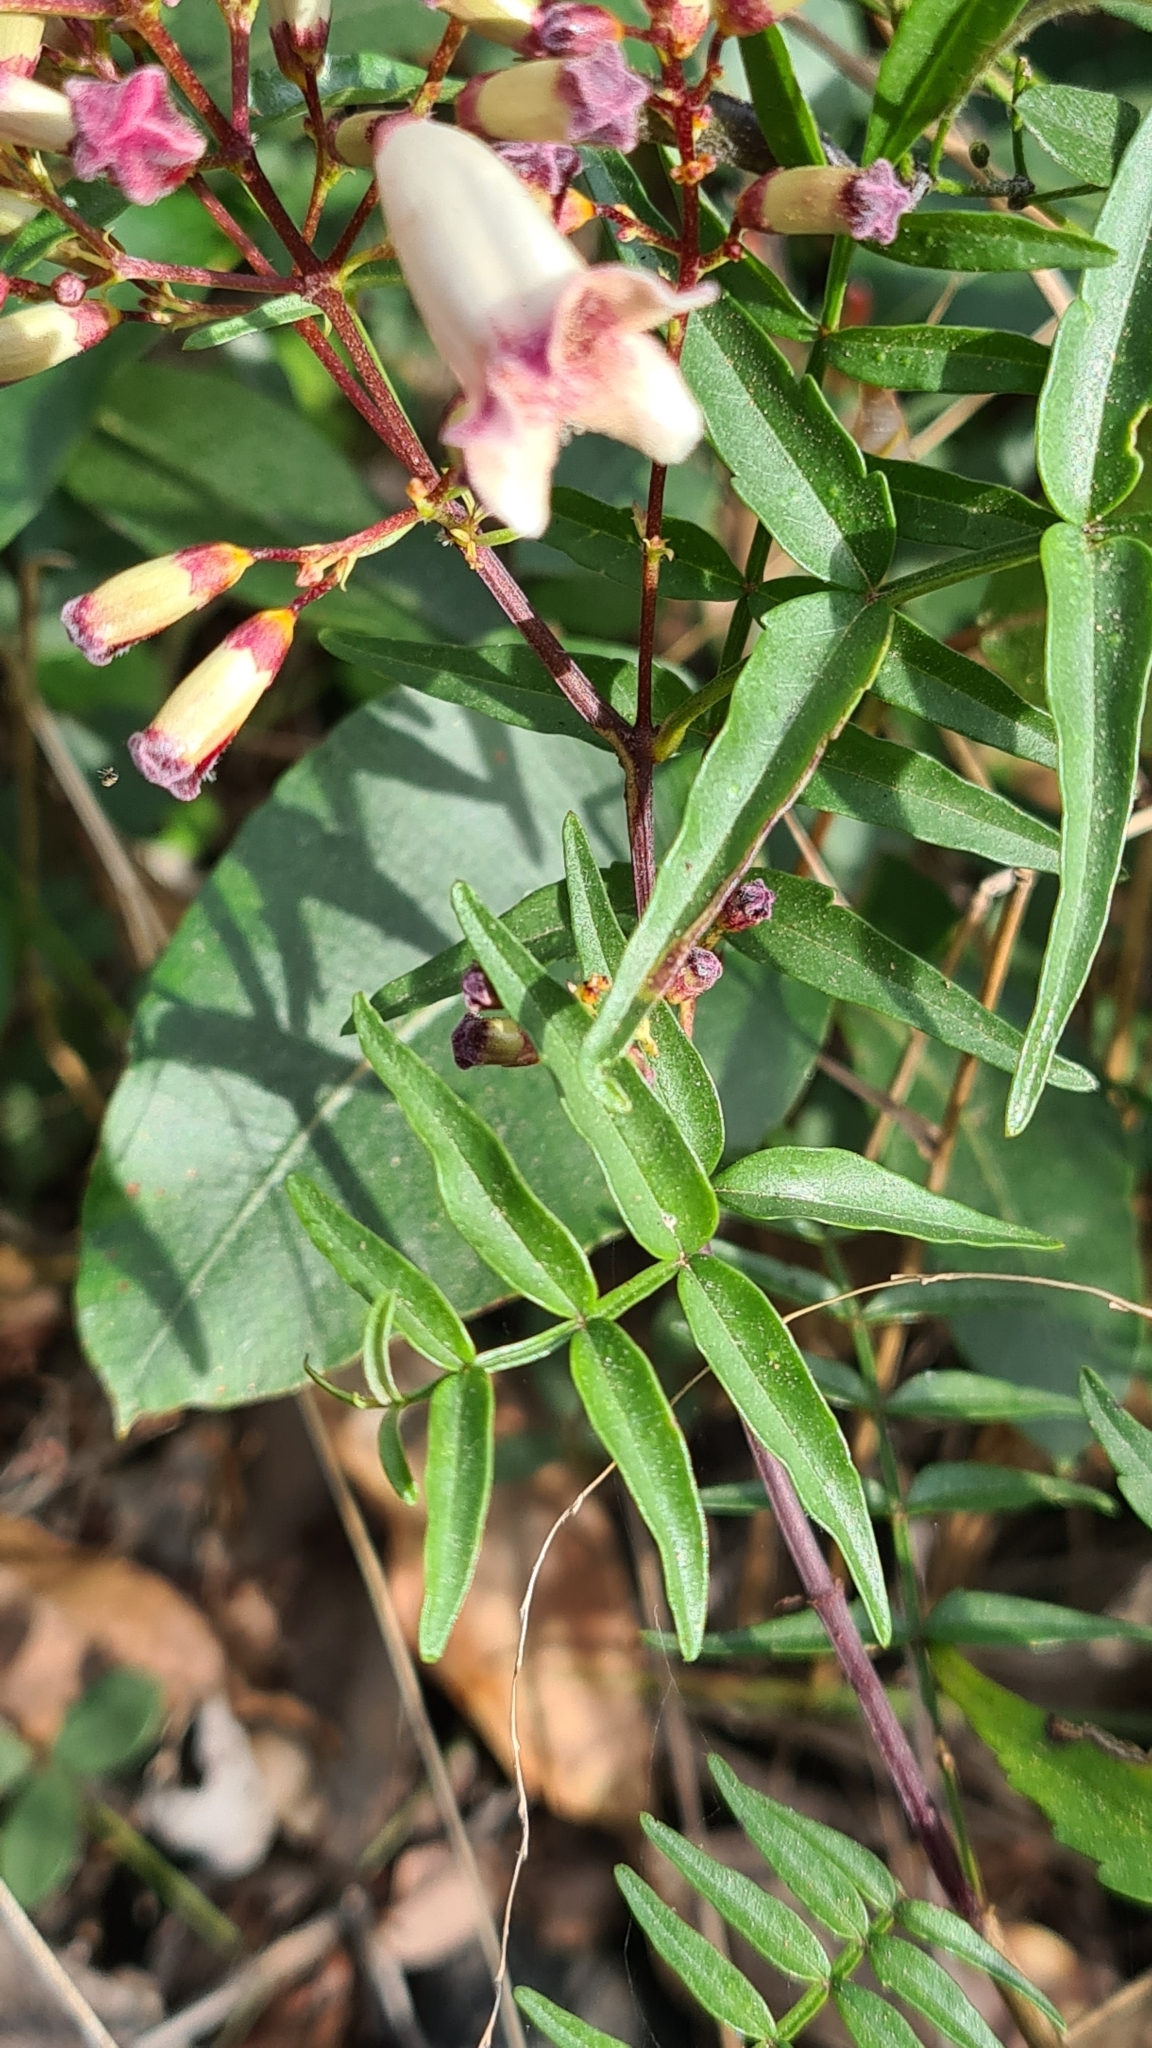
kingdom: Plantae
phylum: Tracheophyta
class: Magnoliopsida
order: Lamiales
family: Bignoniaceae
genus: Pandorea
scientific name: Pandorea pandorana
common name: Wonga-wonga-vine
